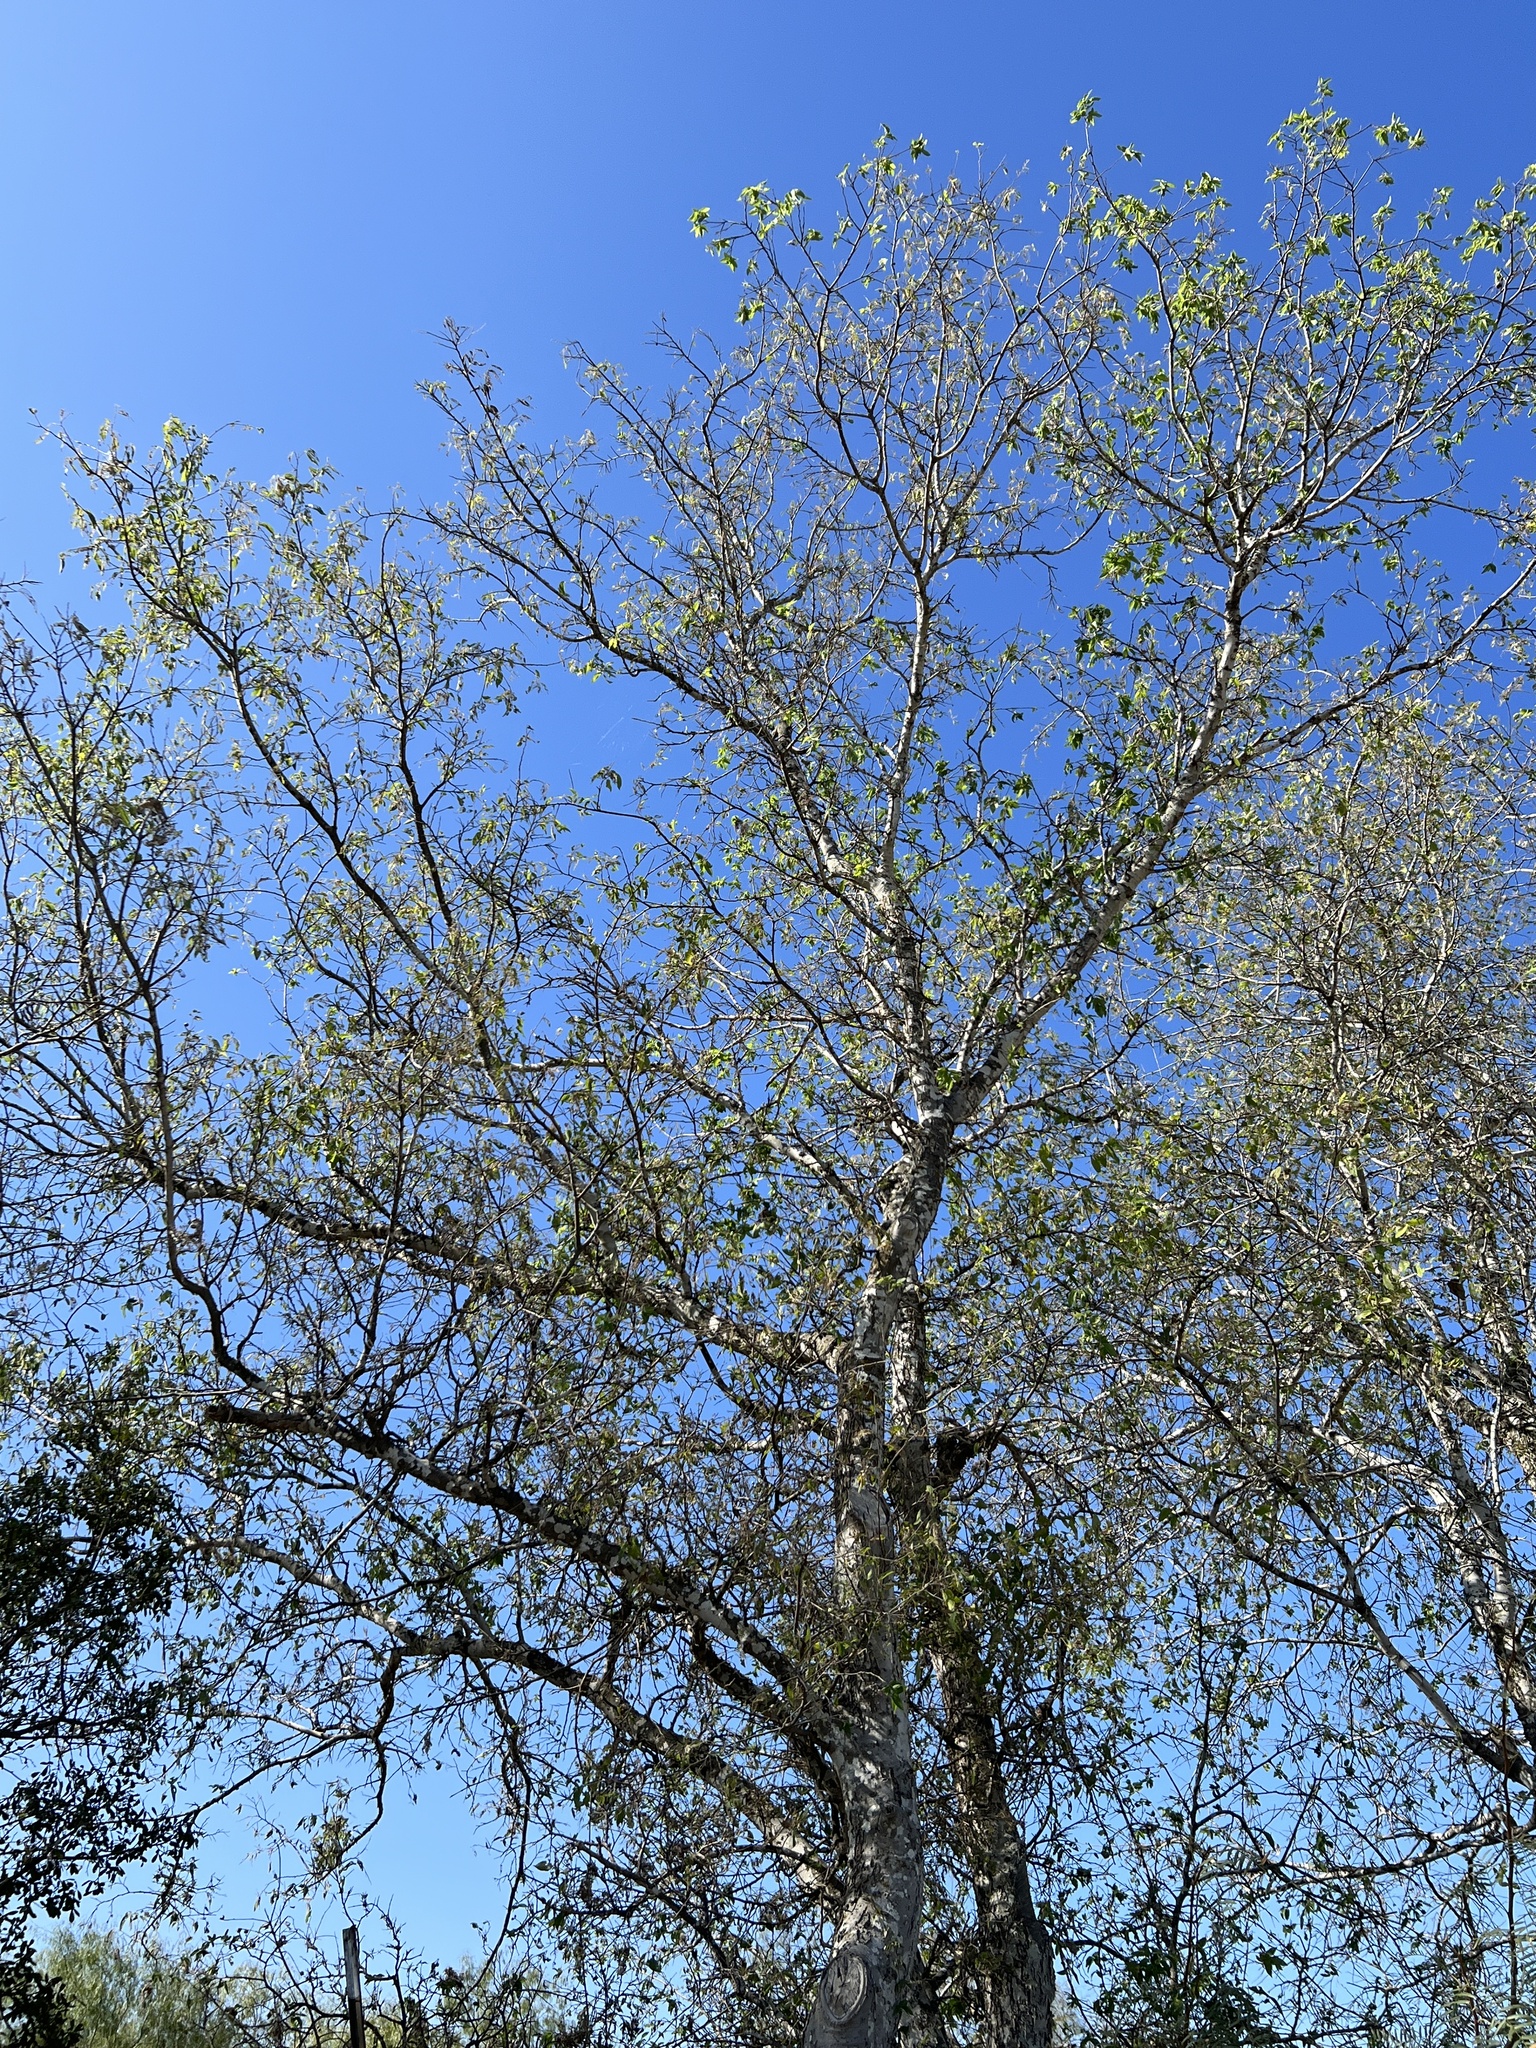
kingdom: Plantae
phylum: Tracheophyta
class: Magnoliopsida
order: Rosales
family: Cannabaceae
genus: Celtis
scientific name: Celtis reticulata
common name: Netleaf hackberry
